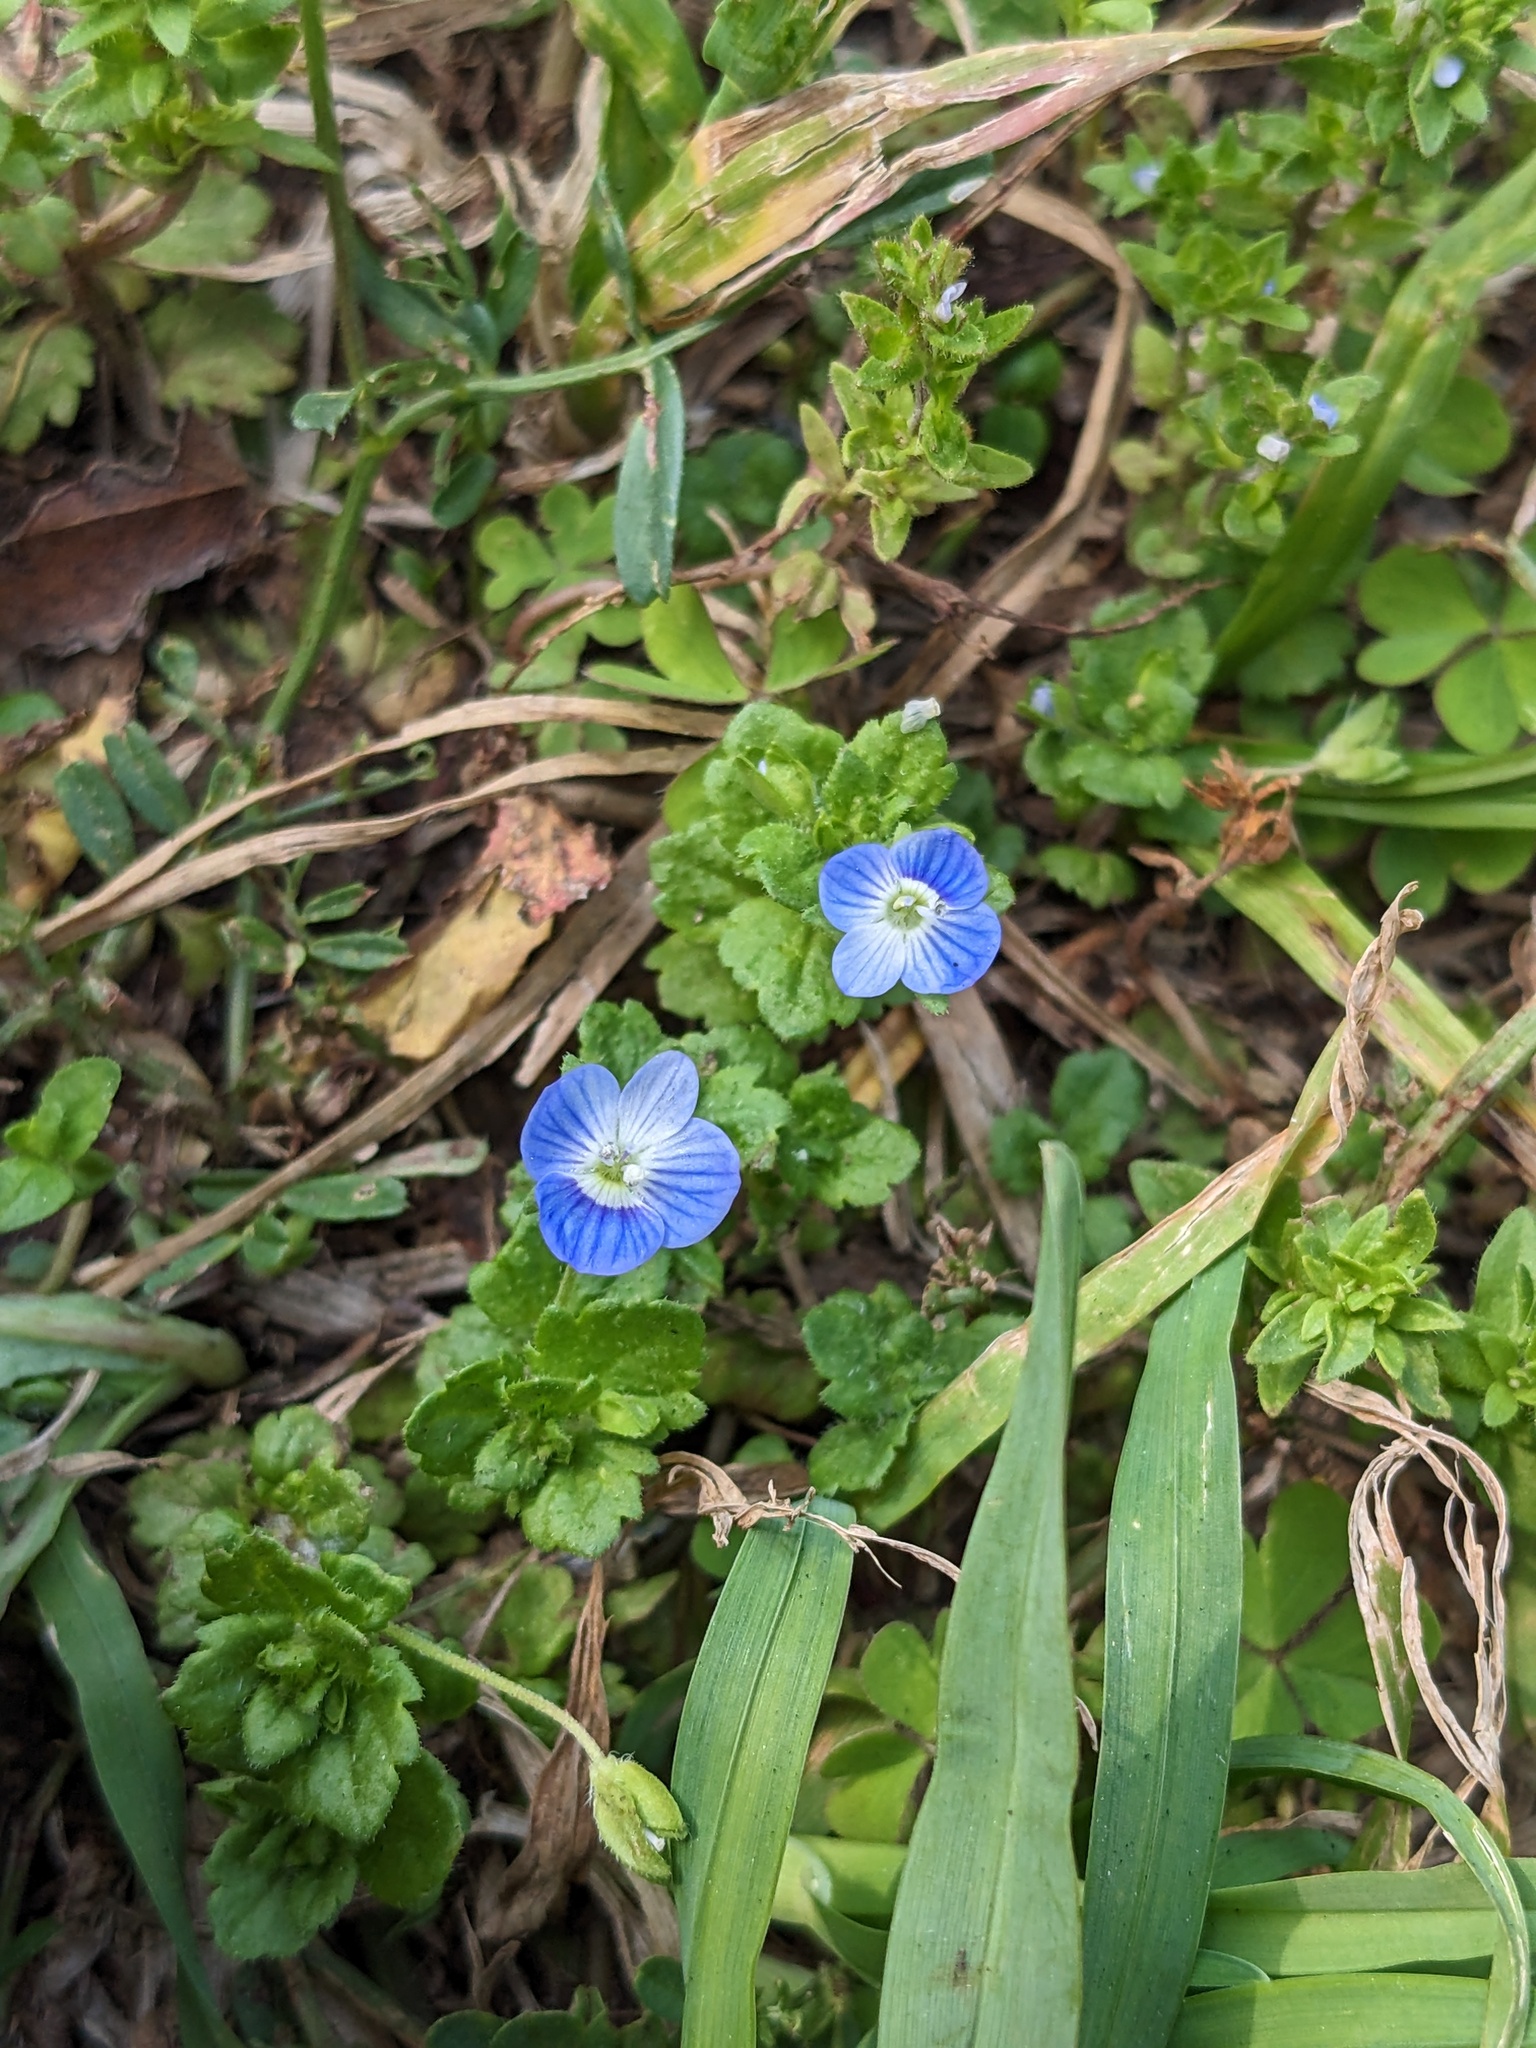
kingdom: Plantae
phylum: Tracheophyta
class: Magnoliopsida
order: Lamiales
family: Plantaginaceae
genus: Veronica
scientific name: Veronica persica
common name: Common field-speedwell
